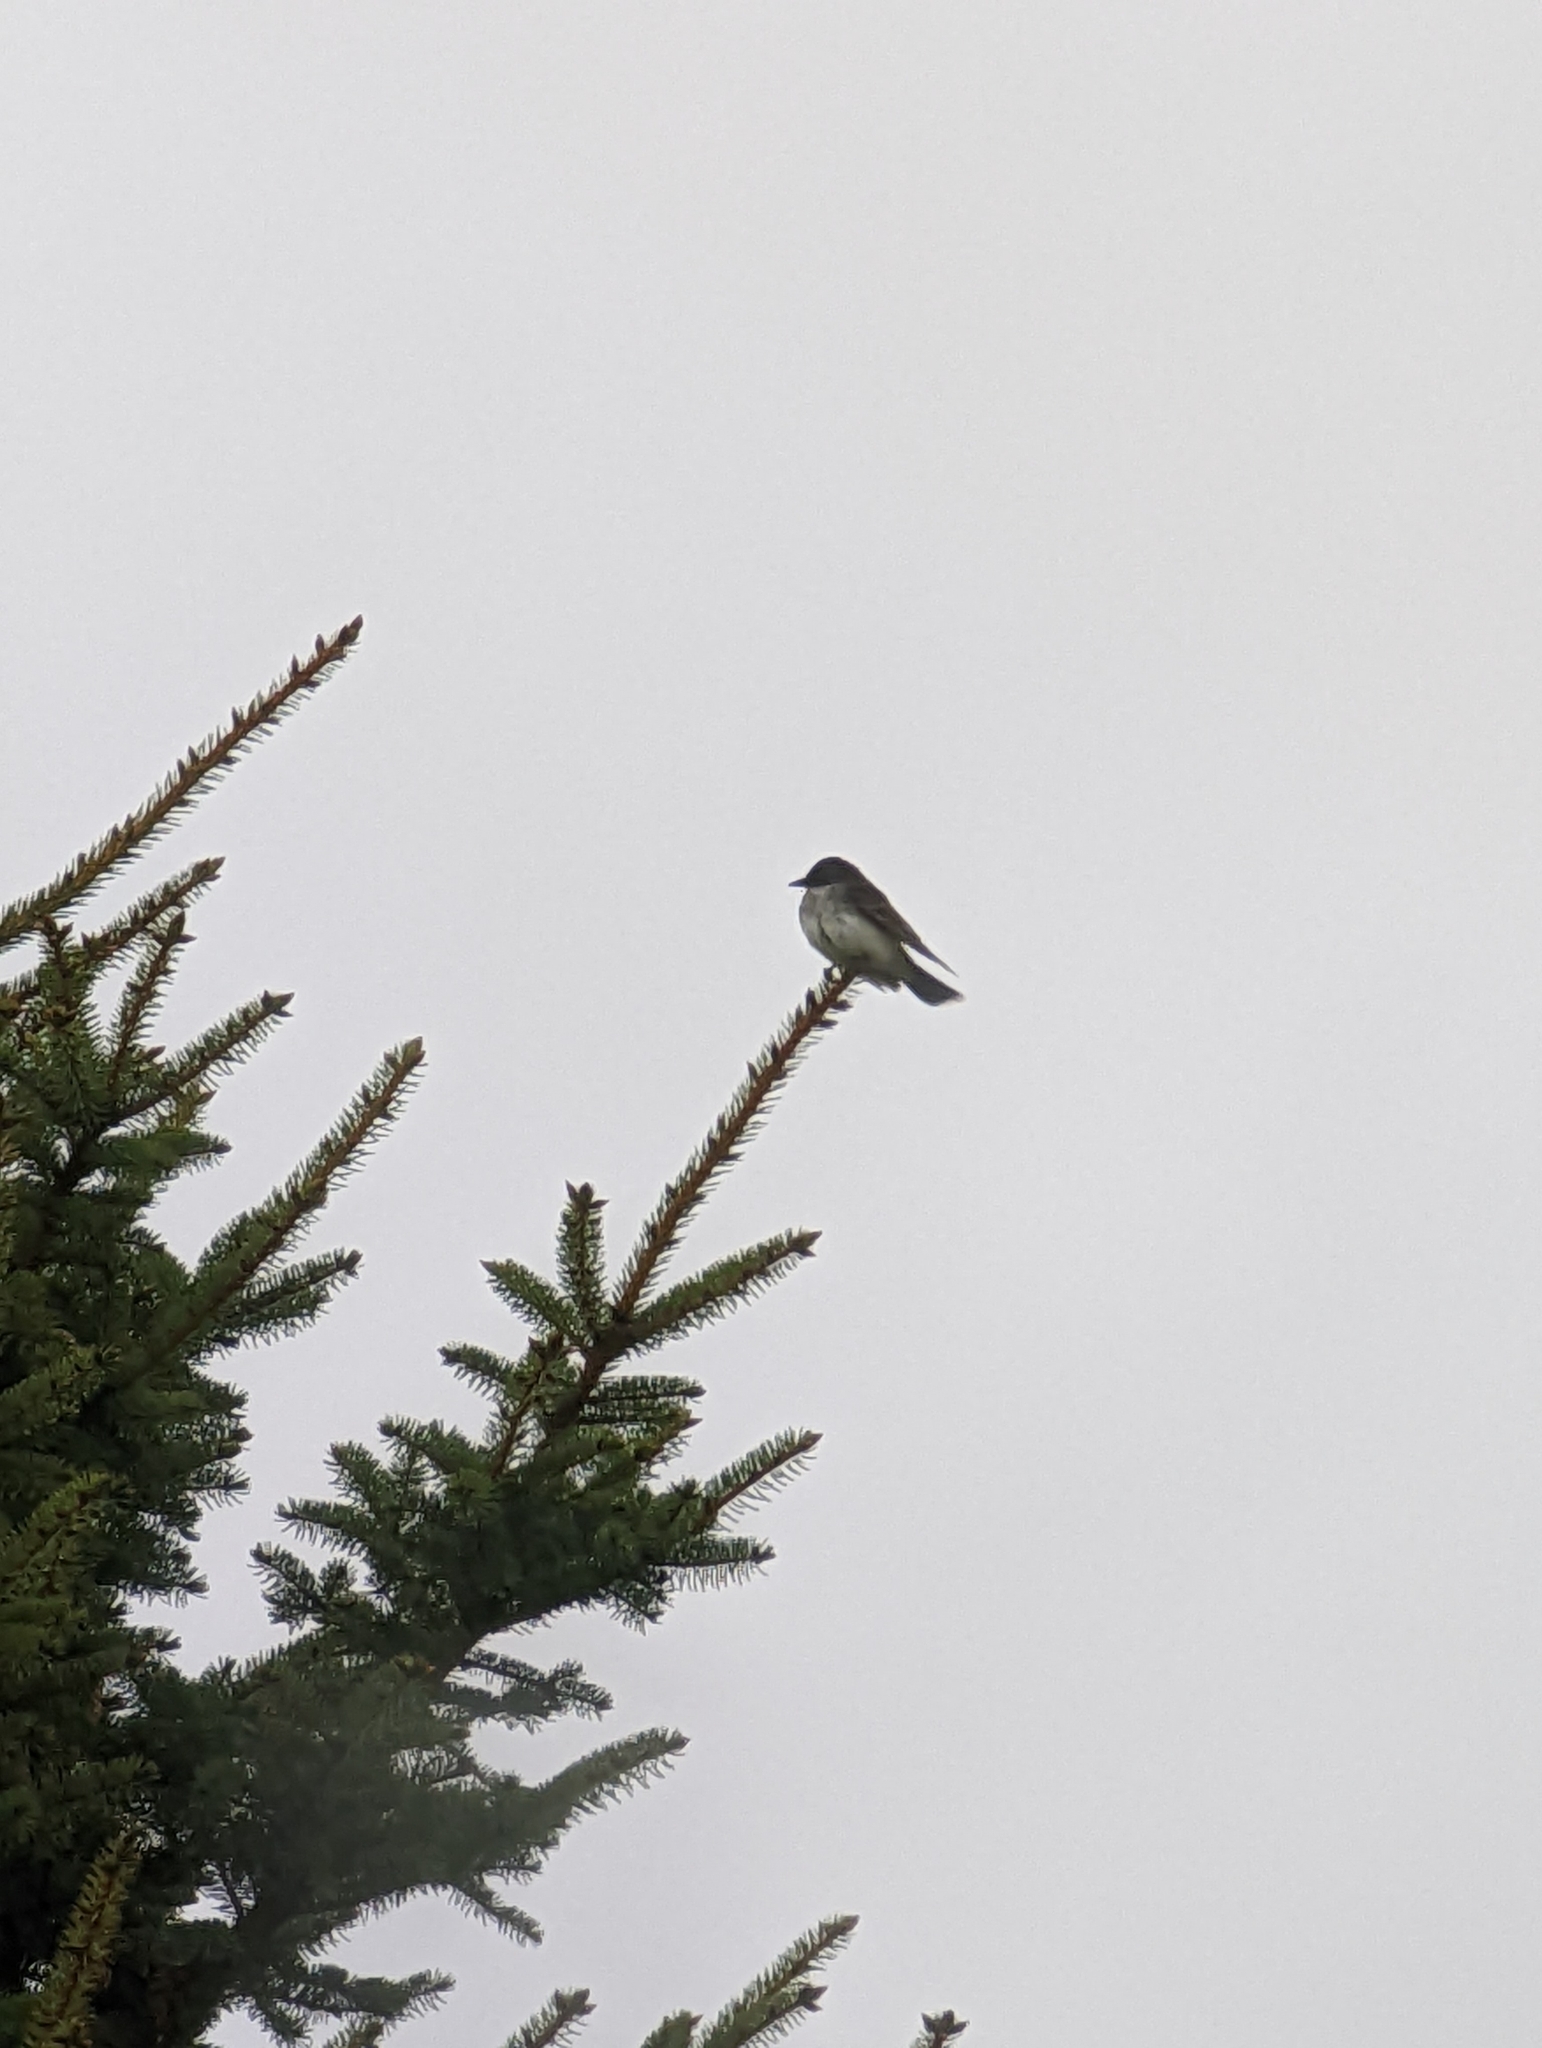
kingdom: Animalia
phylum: Chordata
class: Aves
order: Passeriformes
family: Tyrannidae
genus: Tyrannus
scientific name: Tyrannus tyrannus
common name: Eastern kingbird
